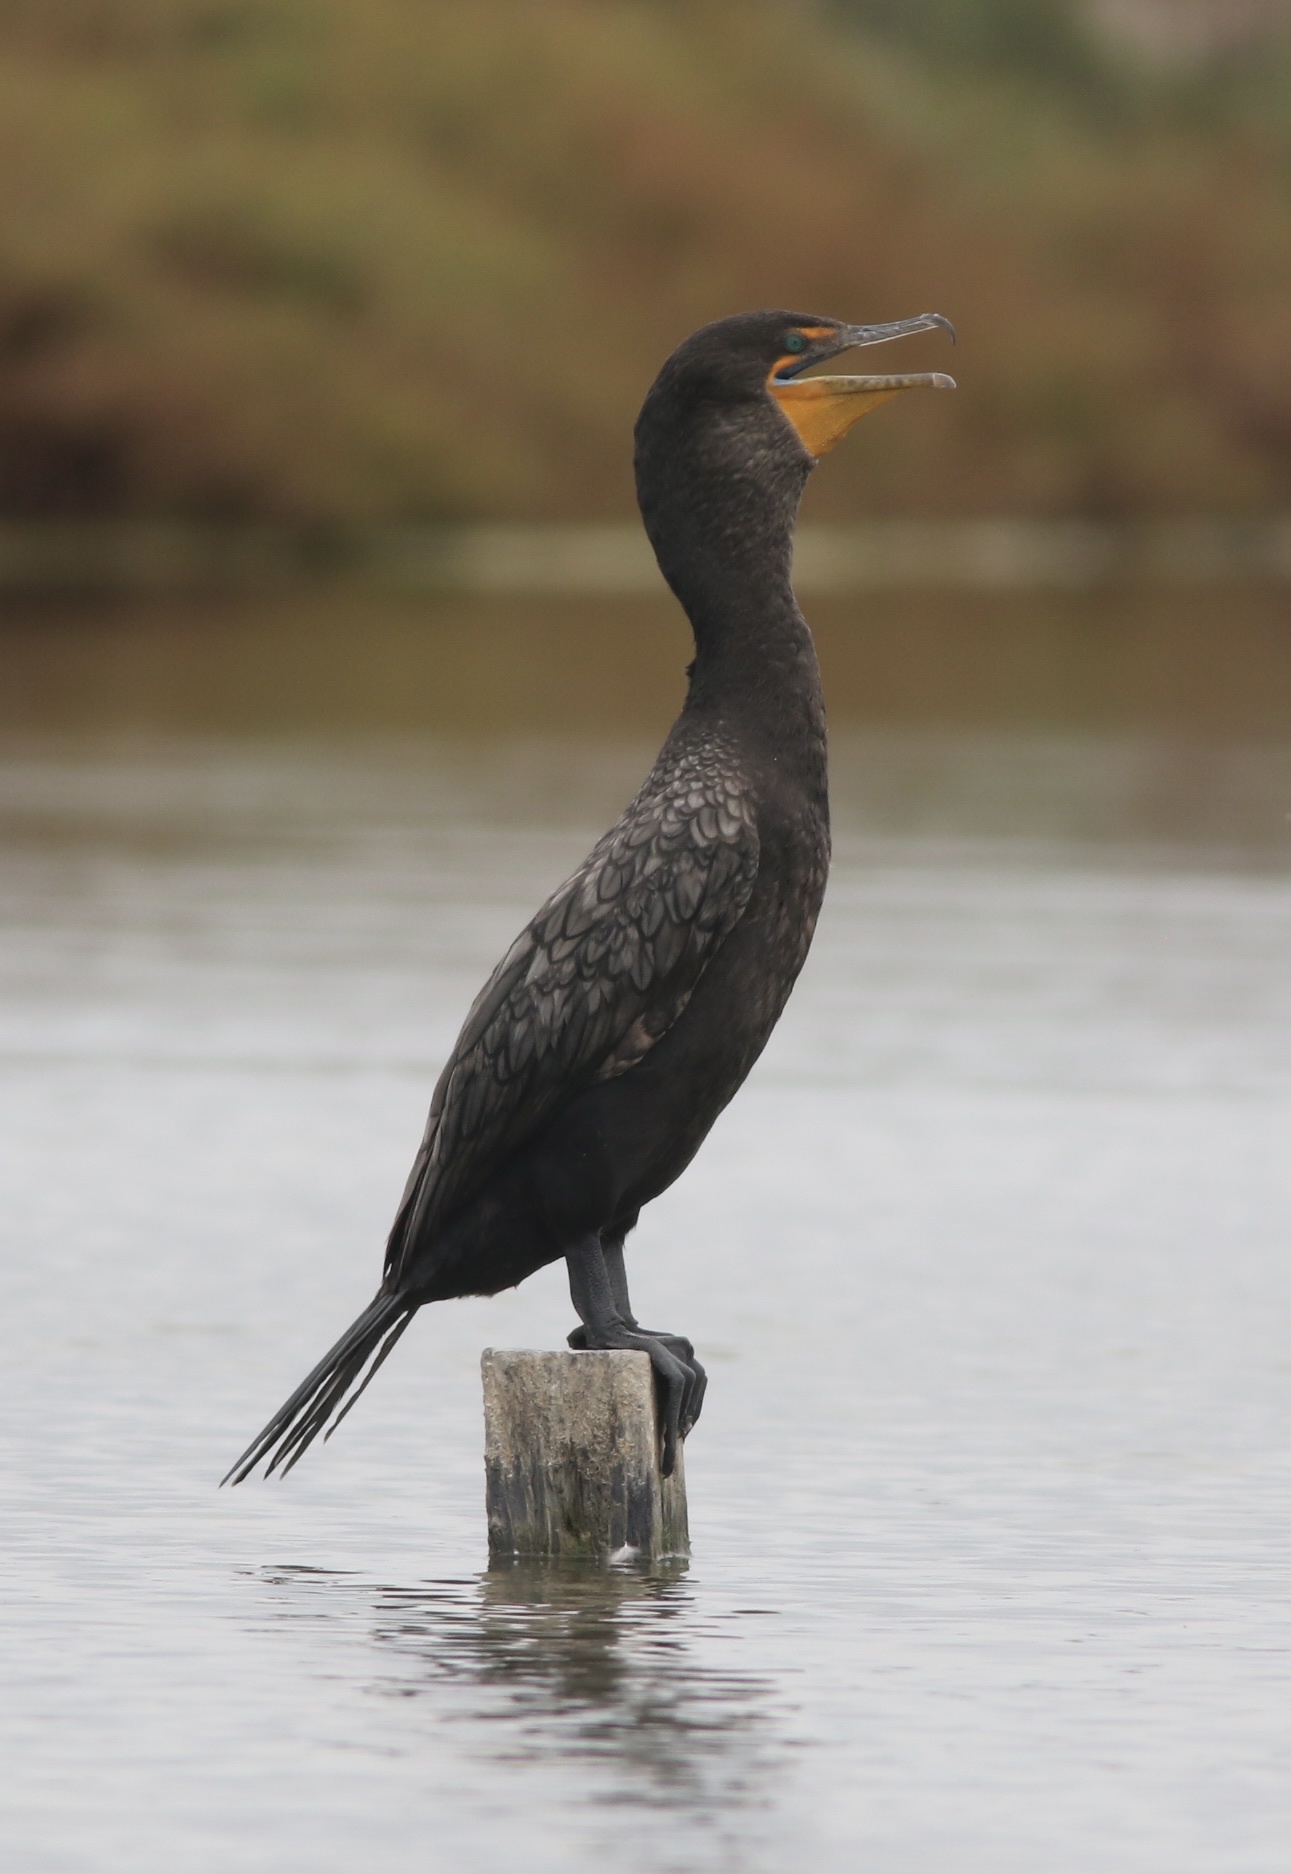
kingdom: Animalia
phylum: Chordata
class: Aves
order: Suliformes
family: Phalacrocoracidae
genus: Phalacrocorax
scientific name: Phalacrocorax auritus
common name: Double-crested cormorant
